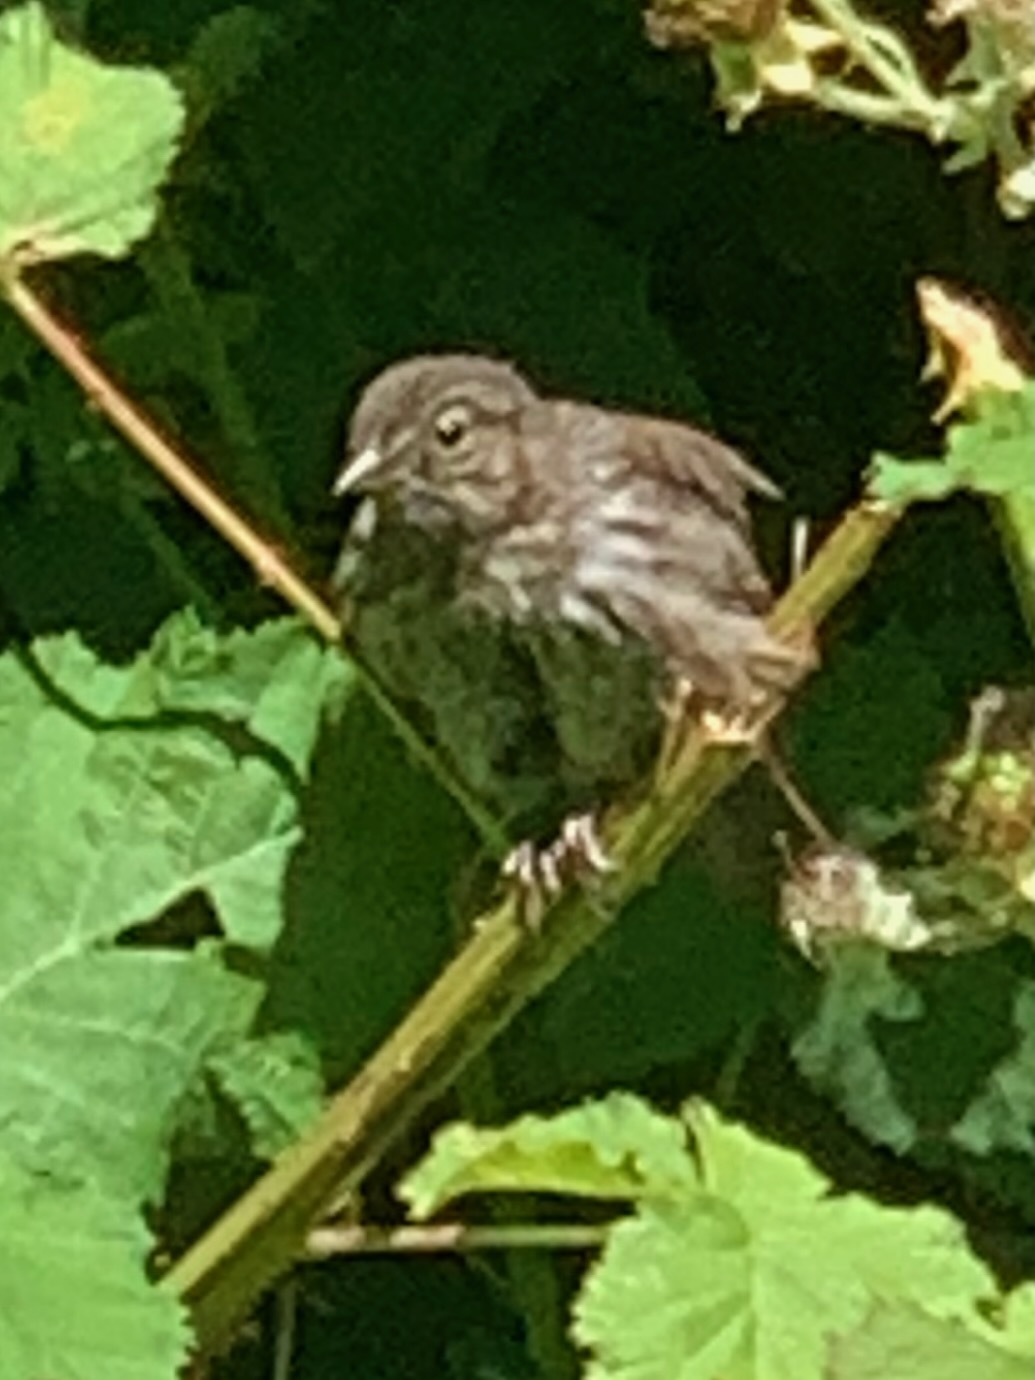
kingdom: Animalia
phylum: Chordata
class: Aves
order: Passeriformes
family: Passerellidae
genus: Melospiza
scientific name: Melospiza melodia
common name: Song sparrow
